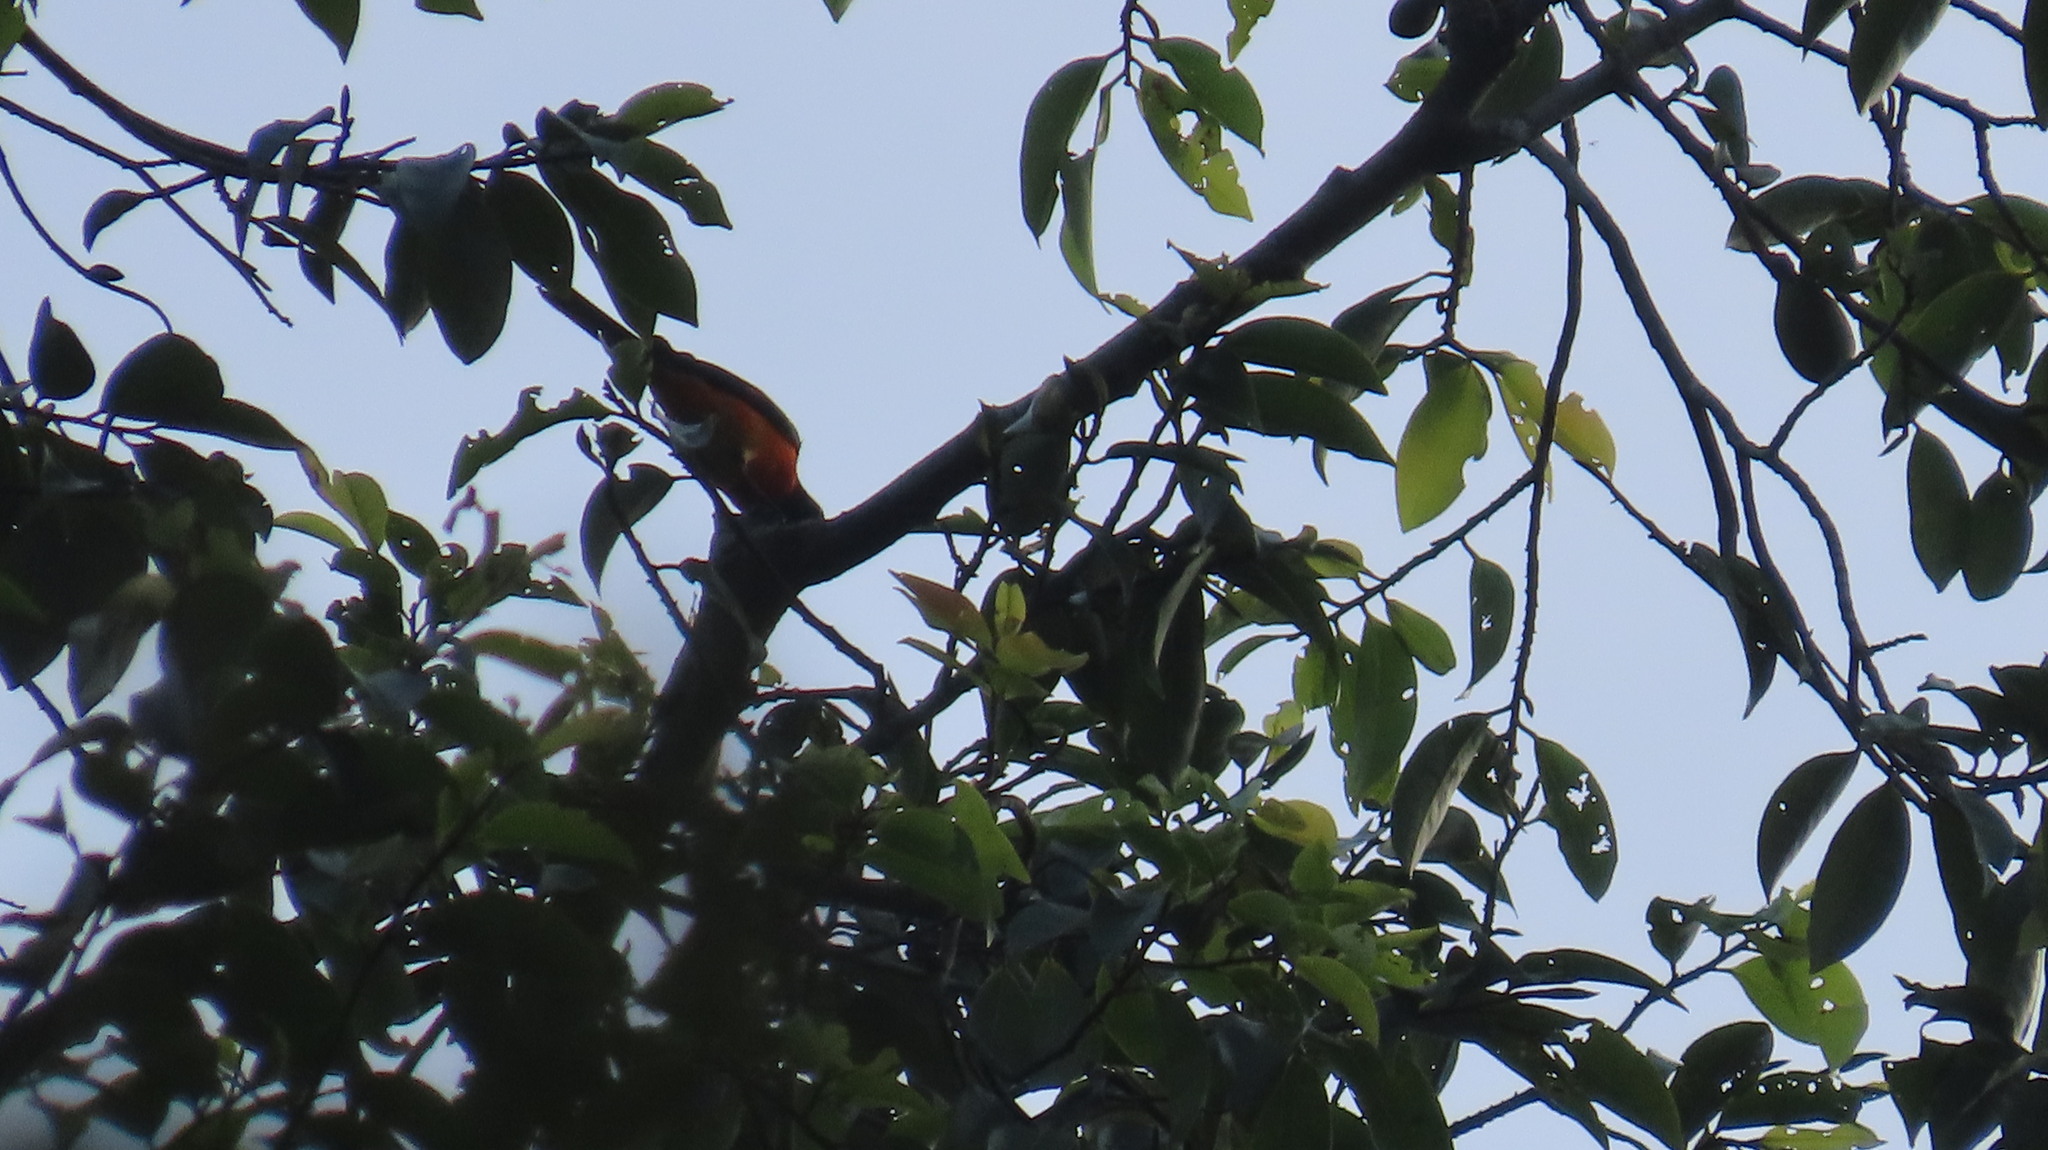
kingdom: Animalia
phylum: Chordata
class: Aves
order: Passeriformes
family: Campephagidae
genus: Pericrocotus
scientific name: Pericrocotus flammeus
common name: Orange minivet
